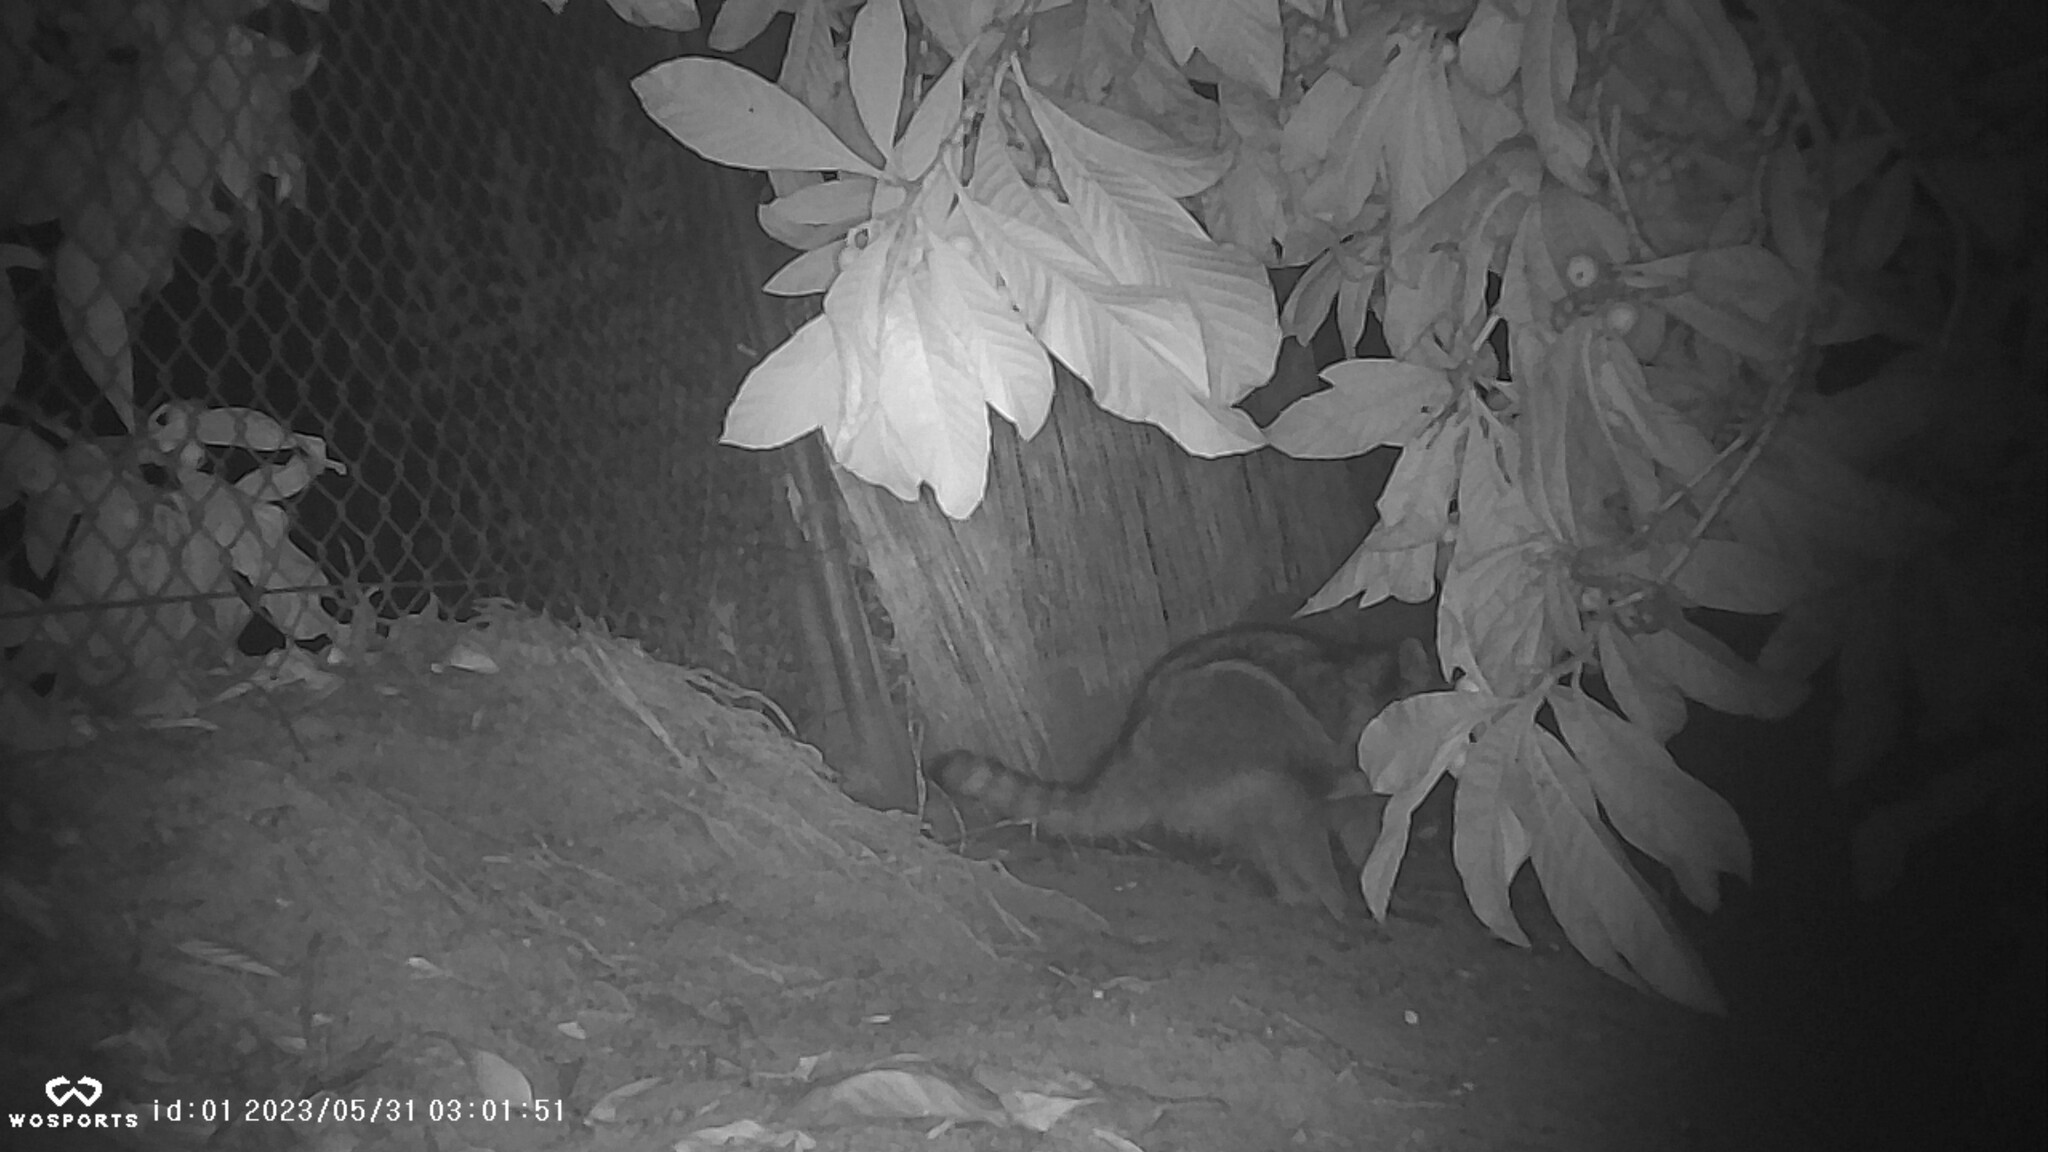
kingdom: Animalia
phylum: Chordata
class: Mammalia
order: Carnivora
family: Procyonidae
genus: Procyon
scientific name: Procyon lotor
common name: Raccoon
